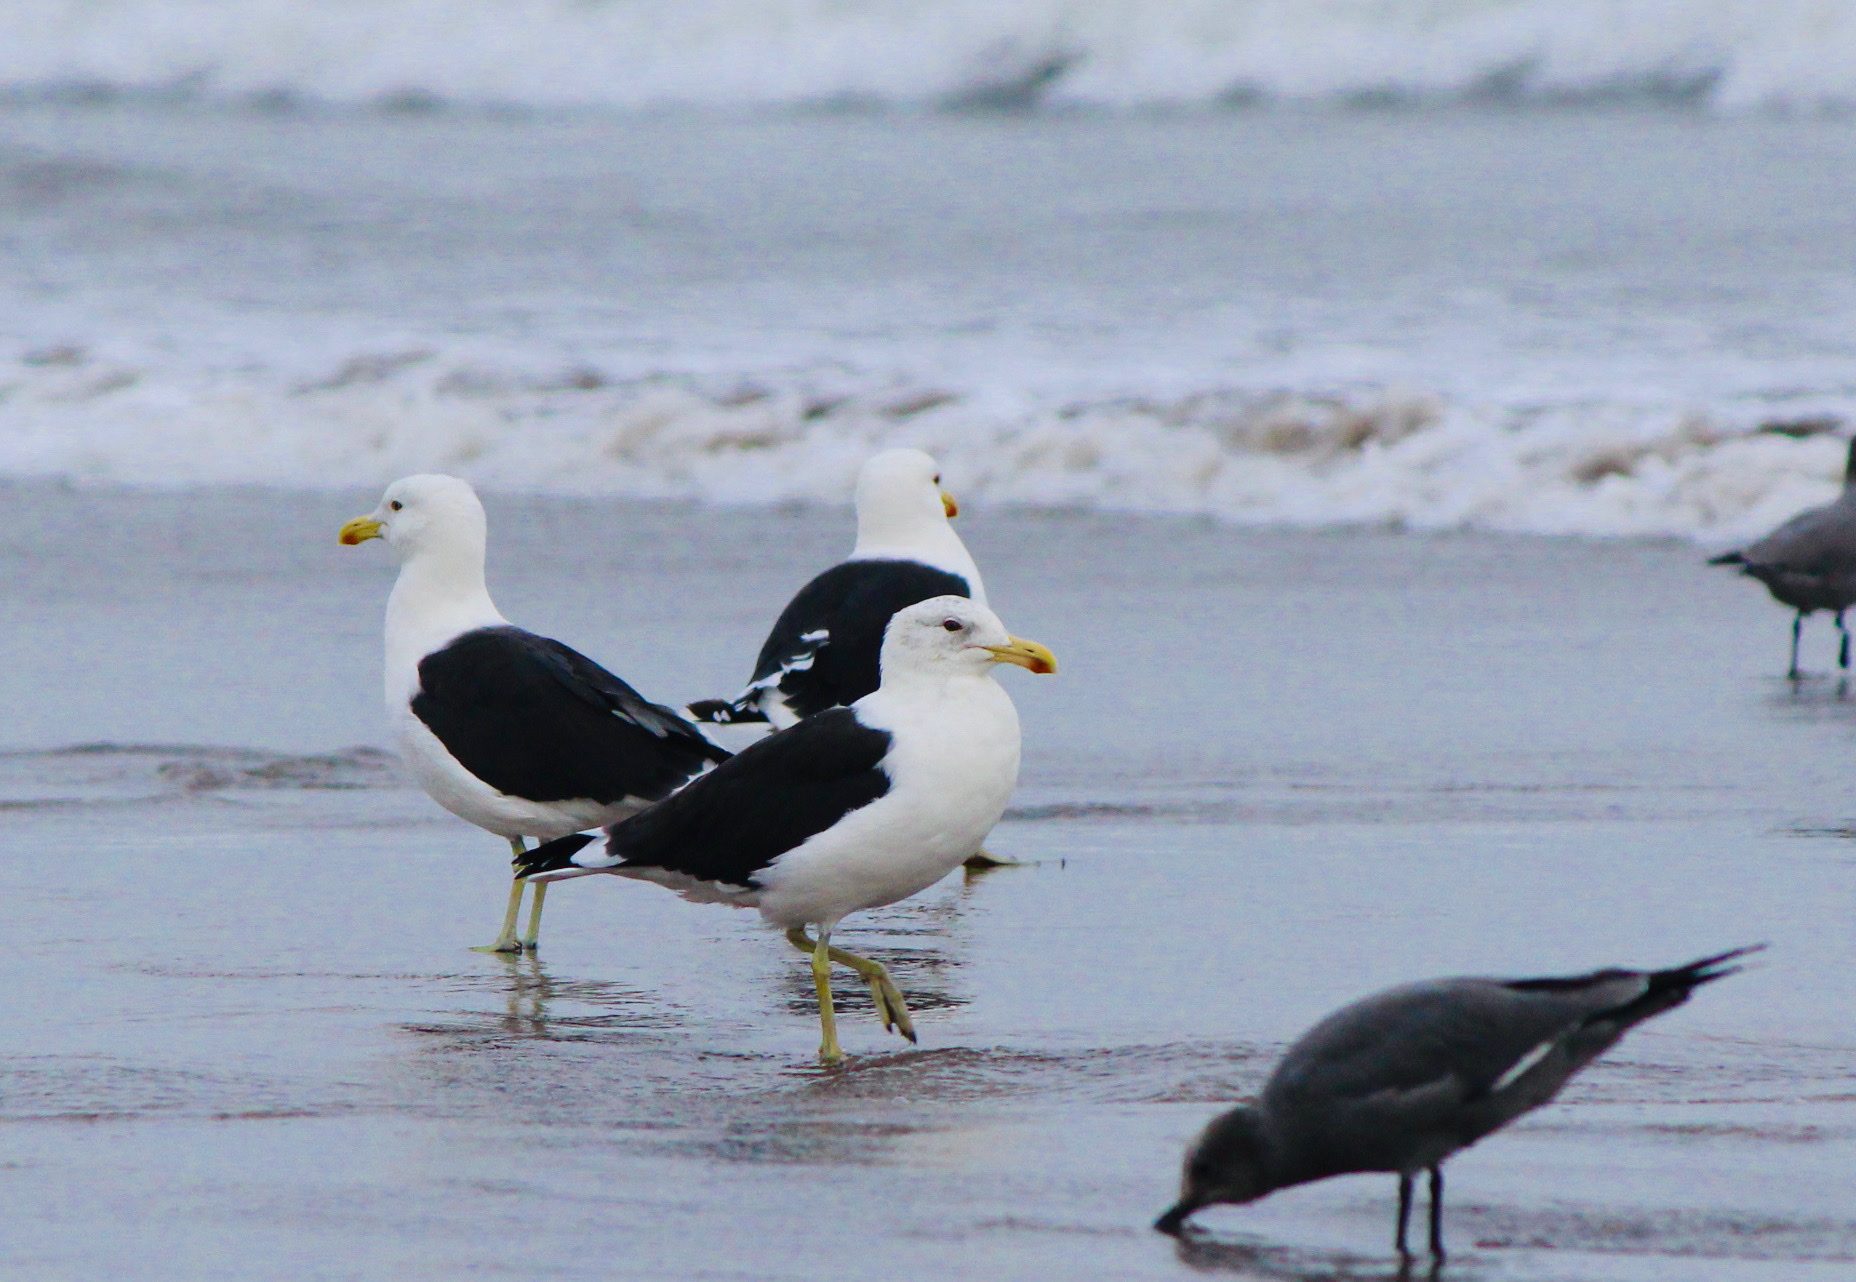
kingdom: Animalia
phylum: Chordata
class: Aves
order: Charadriiformes
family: Laridae
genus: Larus
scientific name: Larus dominicanus
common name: Kelp gull
